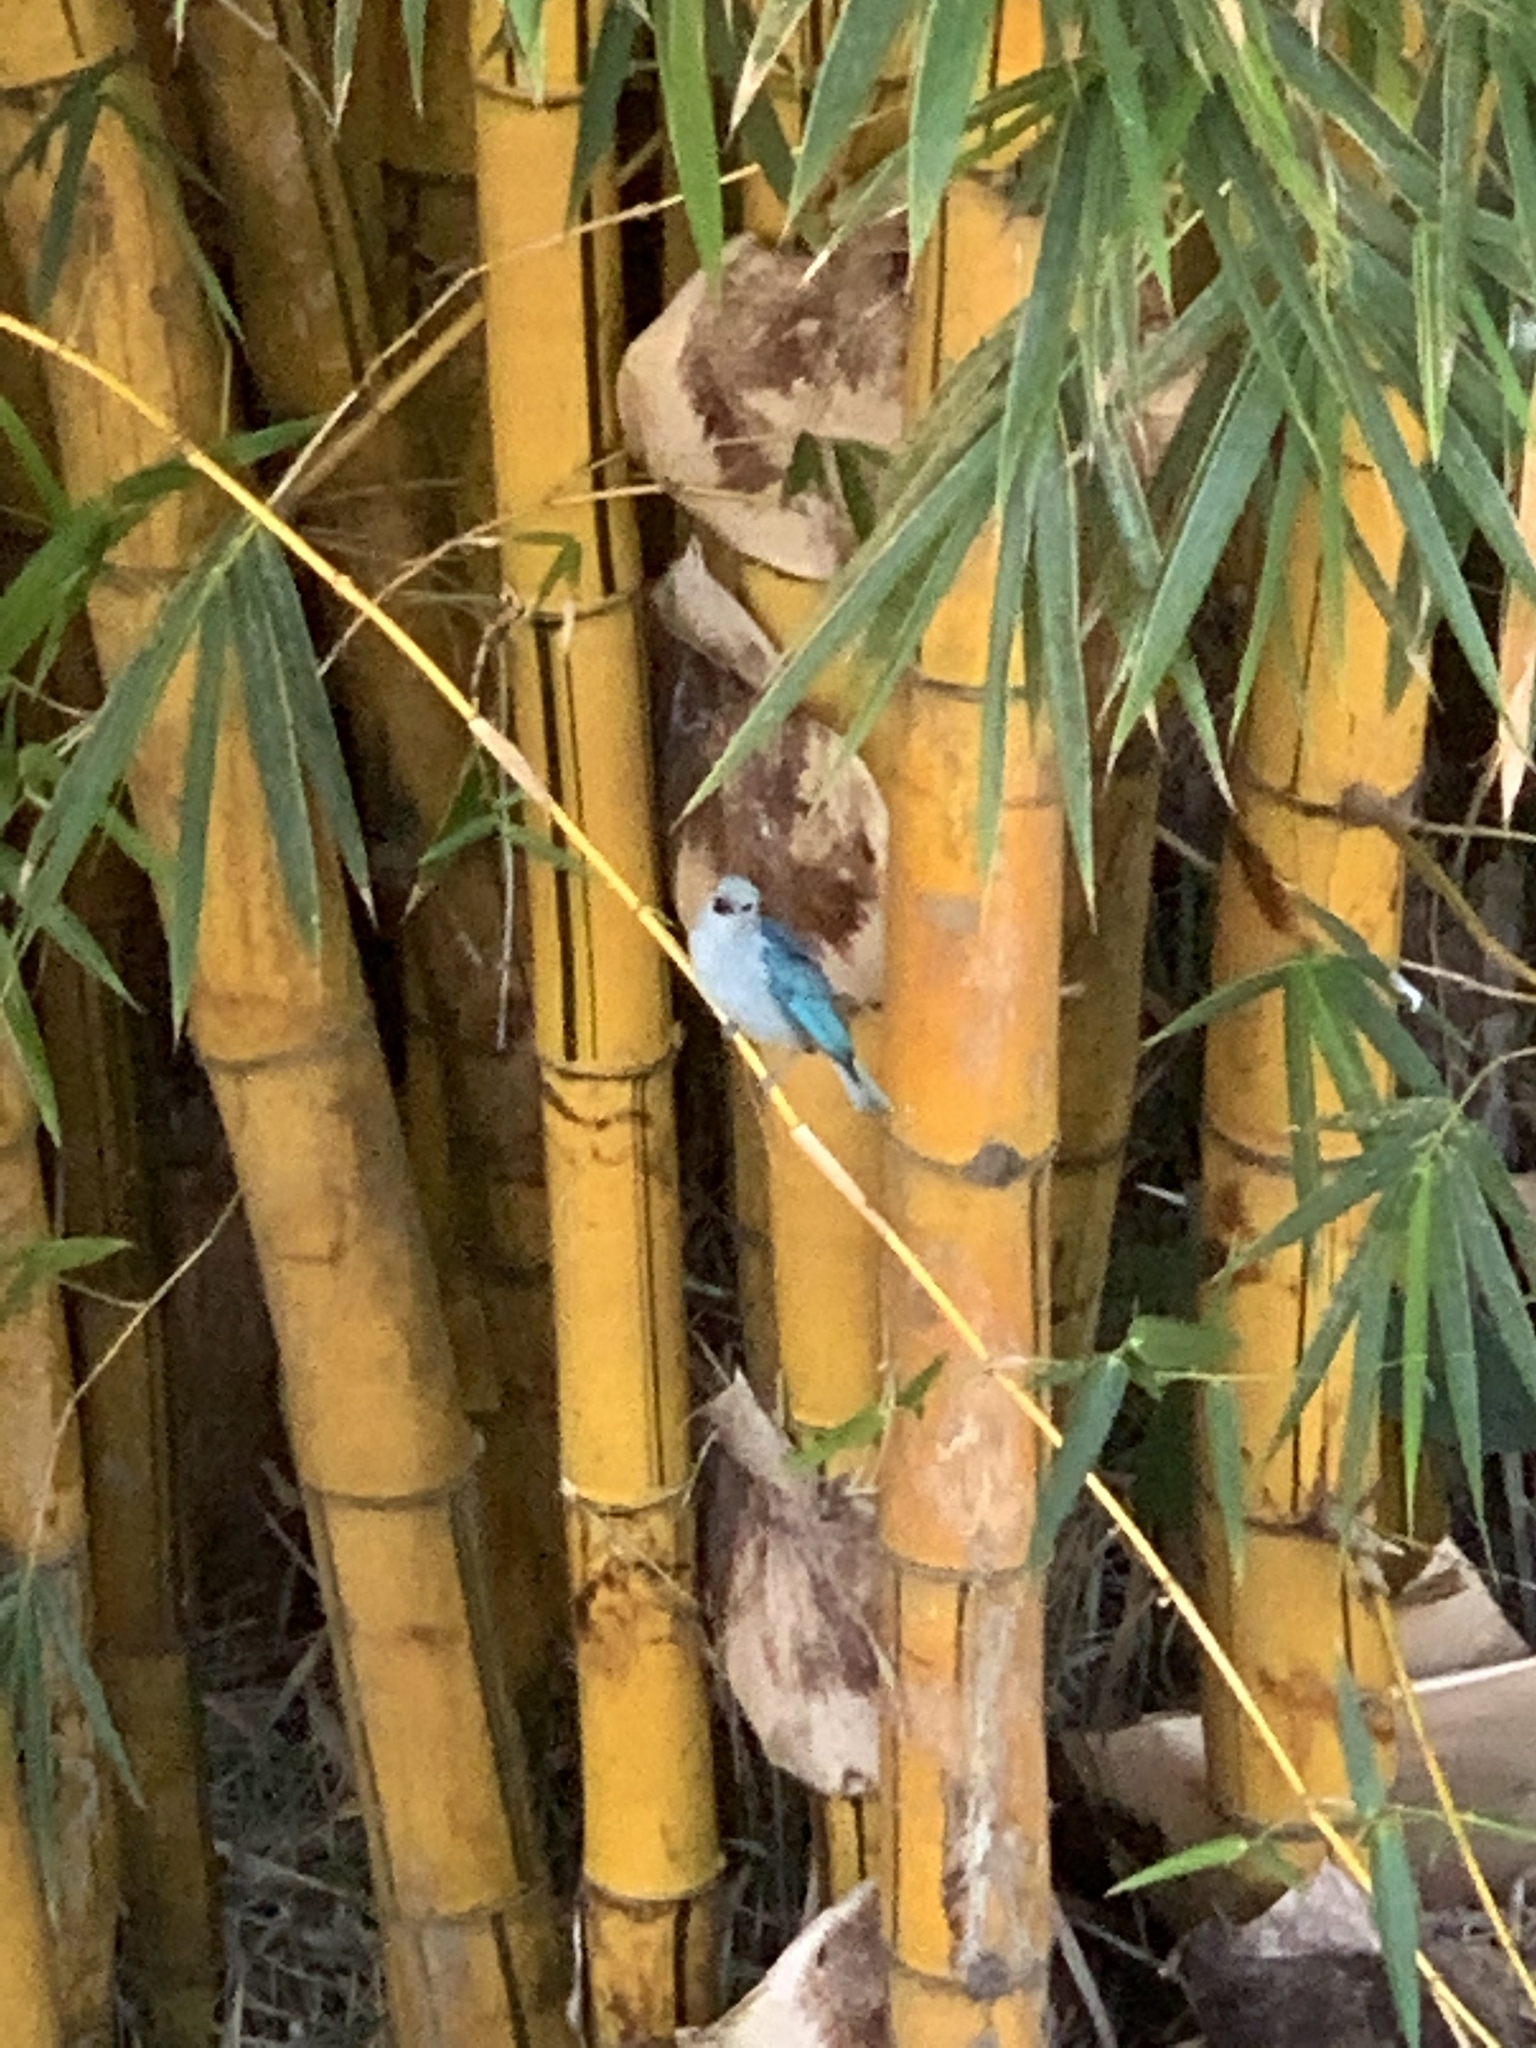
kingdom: Animalia
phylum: Chordata
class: Aves
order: Passeriformes
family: Thraupidae
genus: Thraupis
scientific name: Thraupis episcopus
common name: Blue-grey tanager
